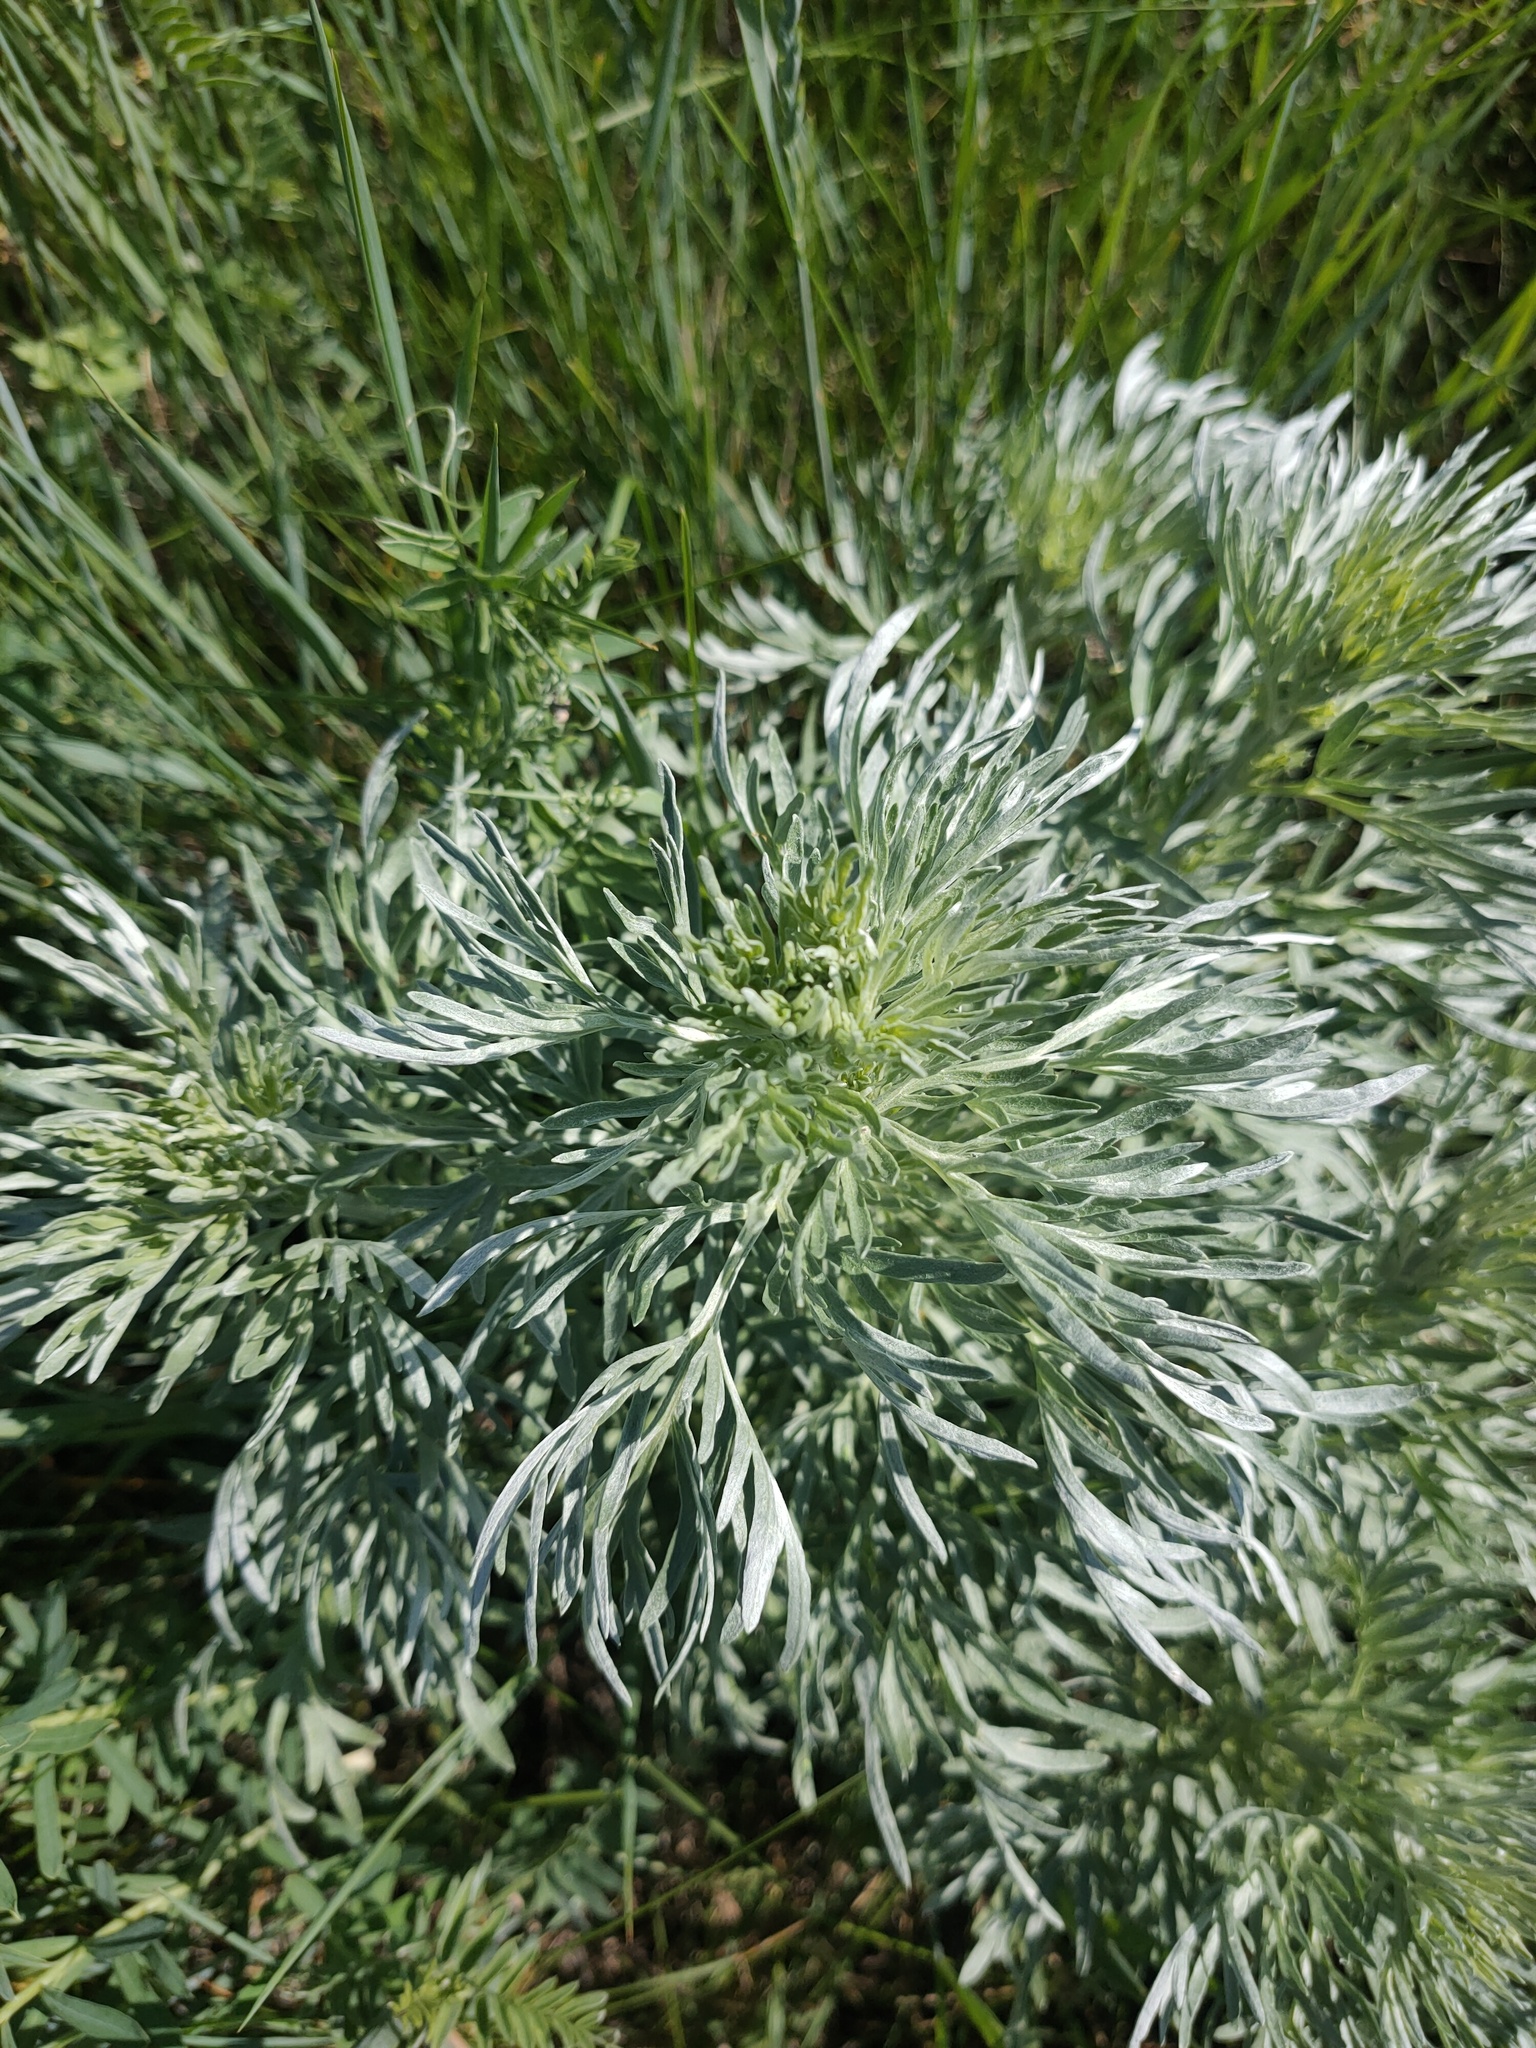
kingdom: Plantae
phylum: Tracheophyta
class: Magnoliopsida
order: Asterales
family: Asteraceae
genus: Artemisia
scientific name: Artemisia absinthium
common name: Wormwood
